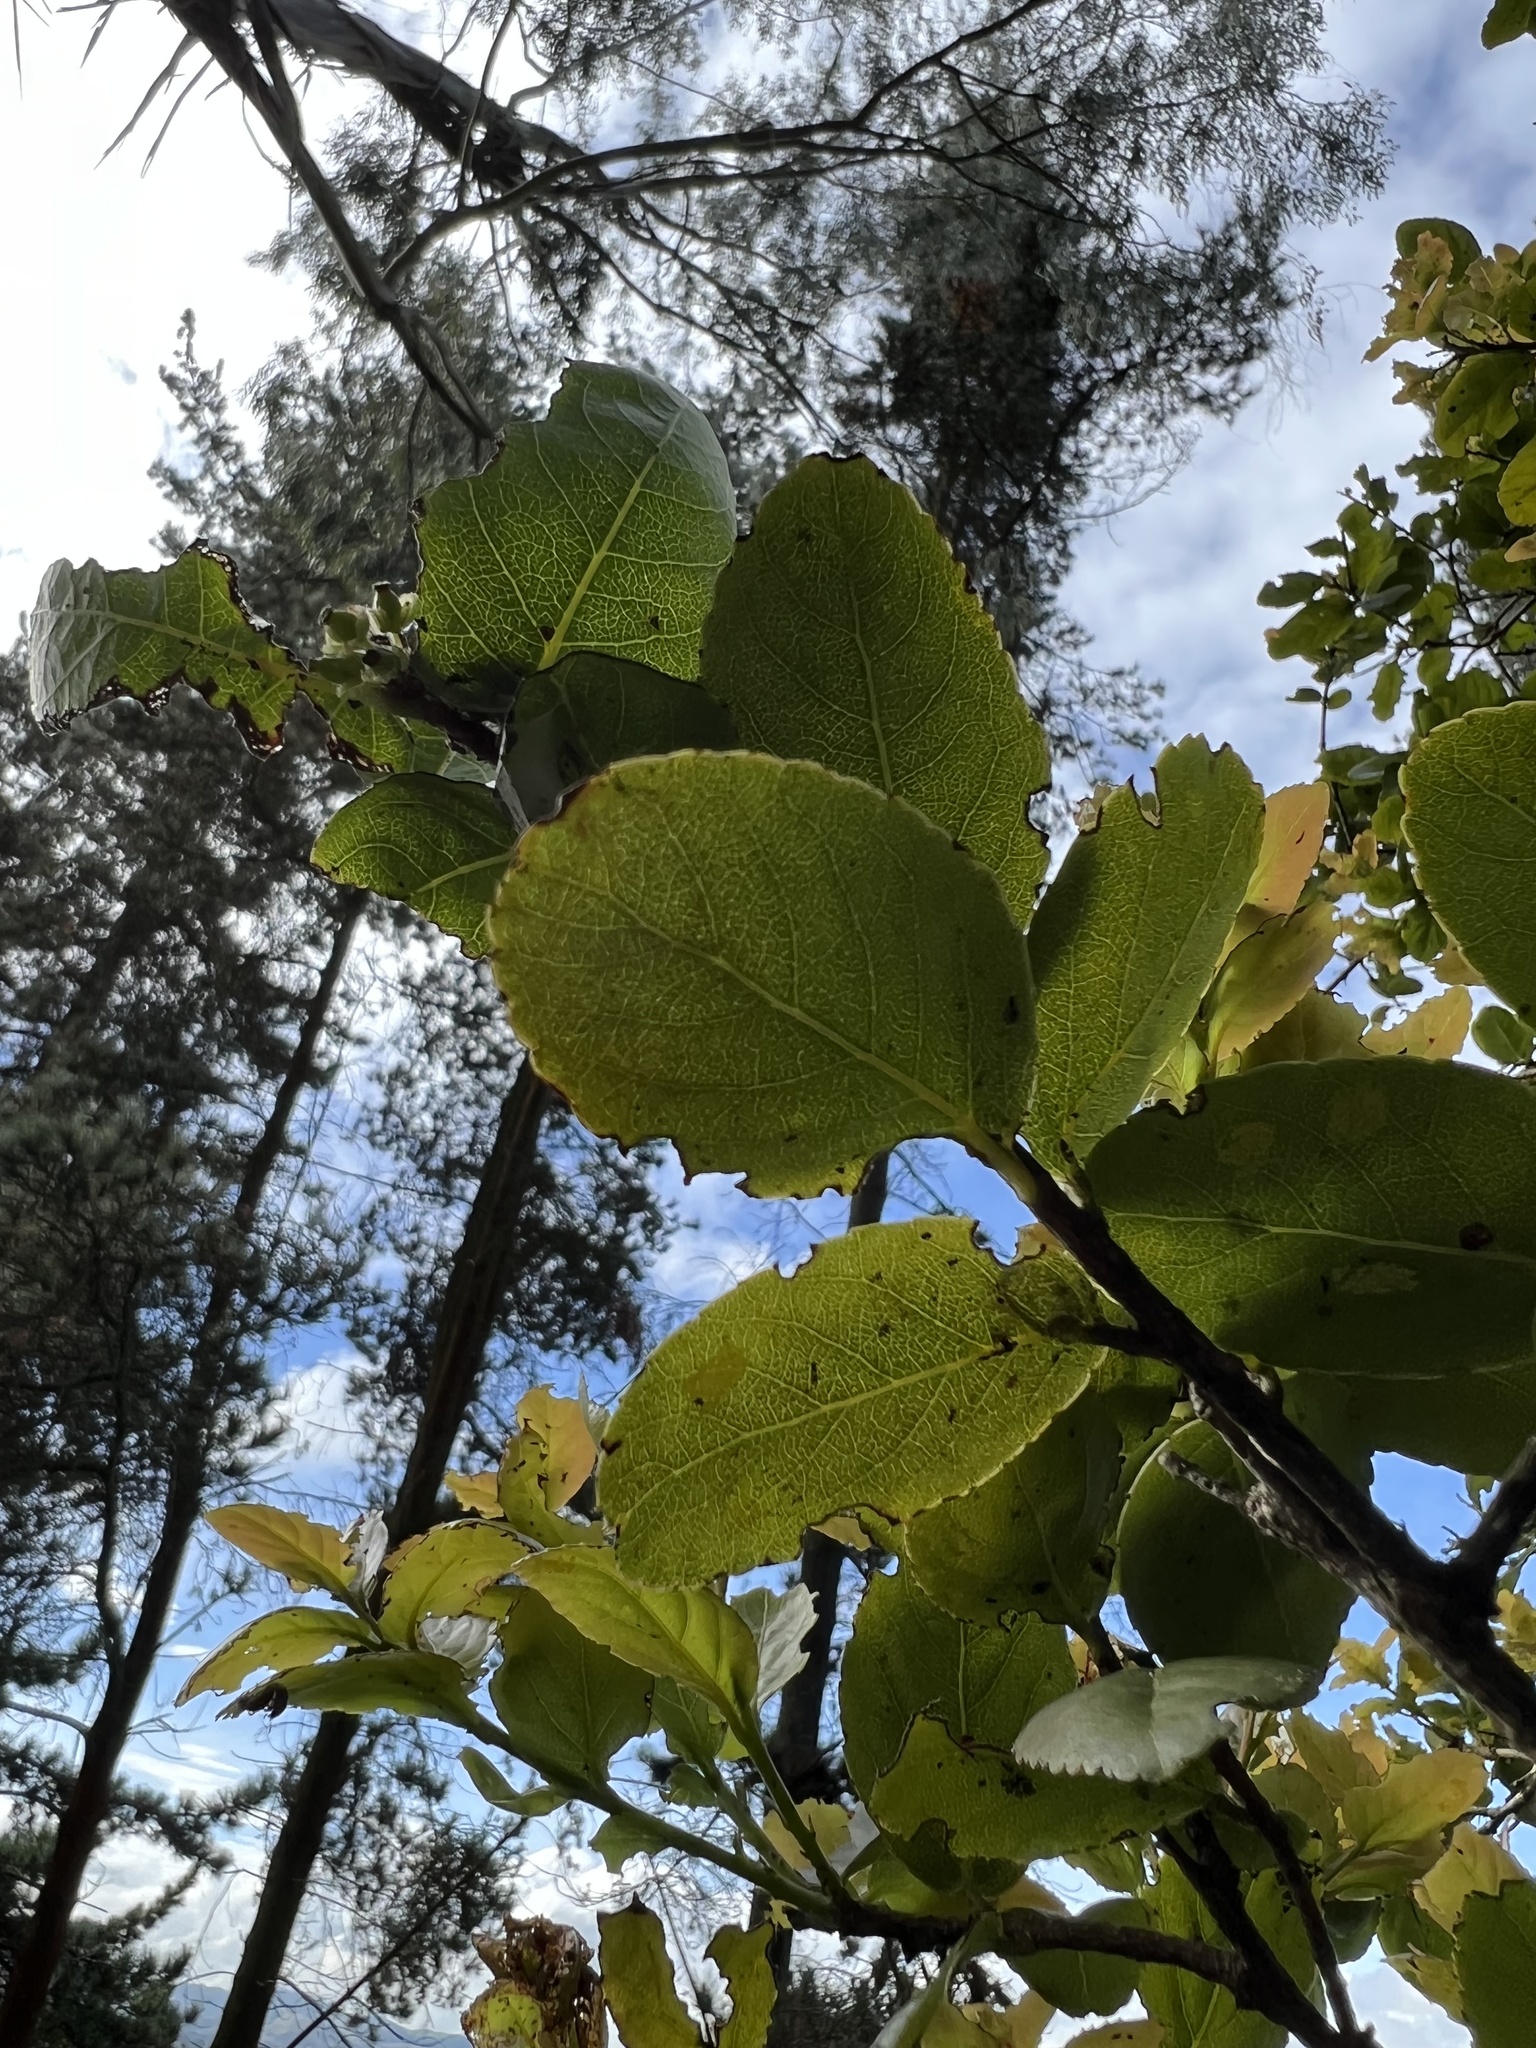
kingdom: Plantae
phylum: Tracheophyta
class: Magnoliopsida
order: Malpighiales
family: Salicaceae
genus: Xylosma
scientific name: Xylosma spiculifera
